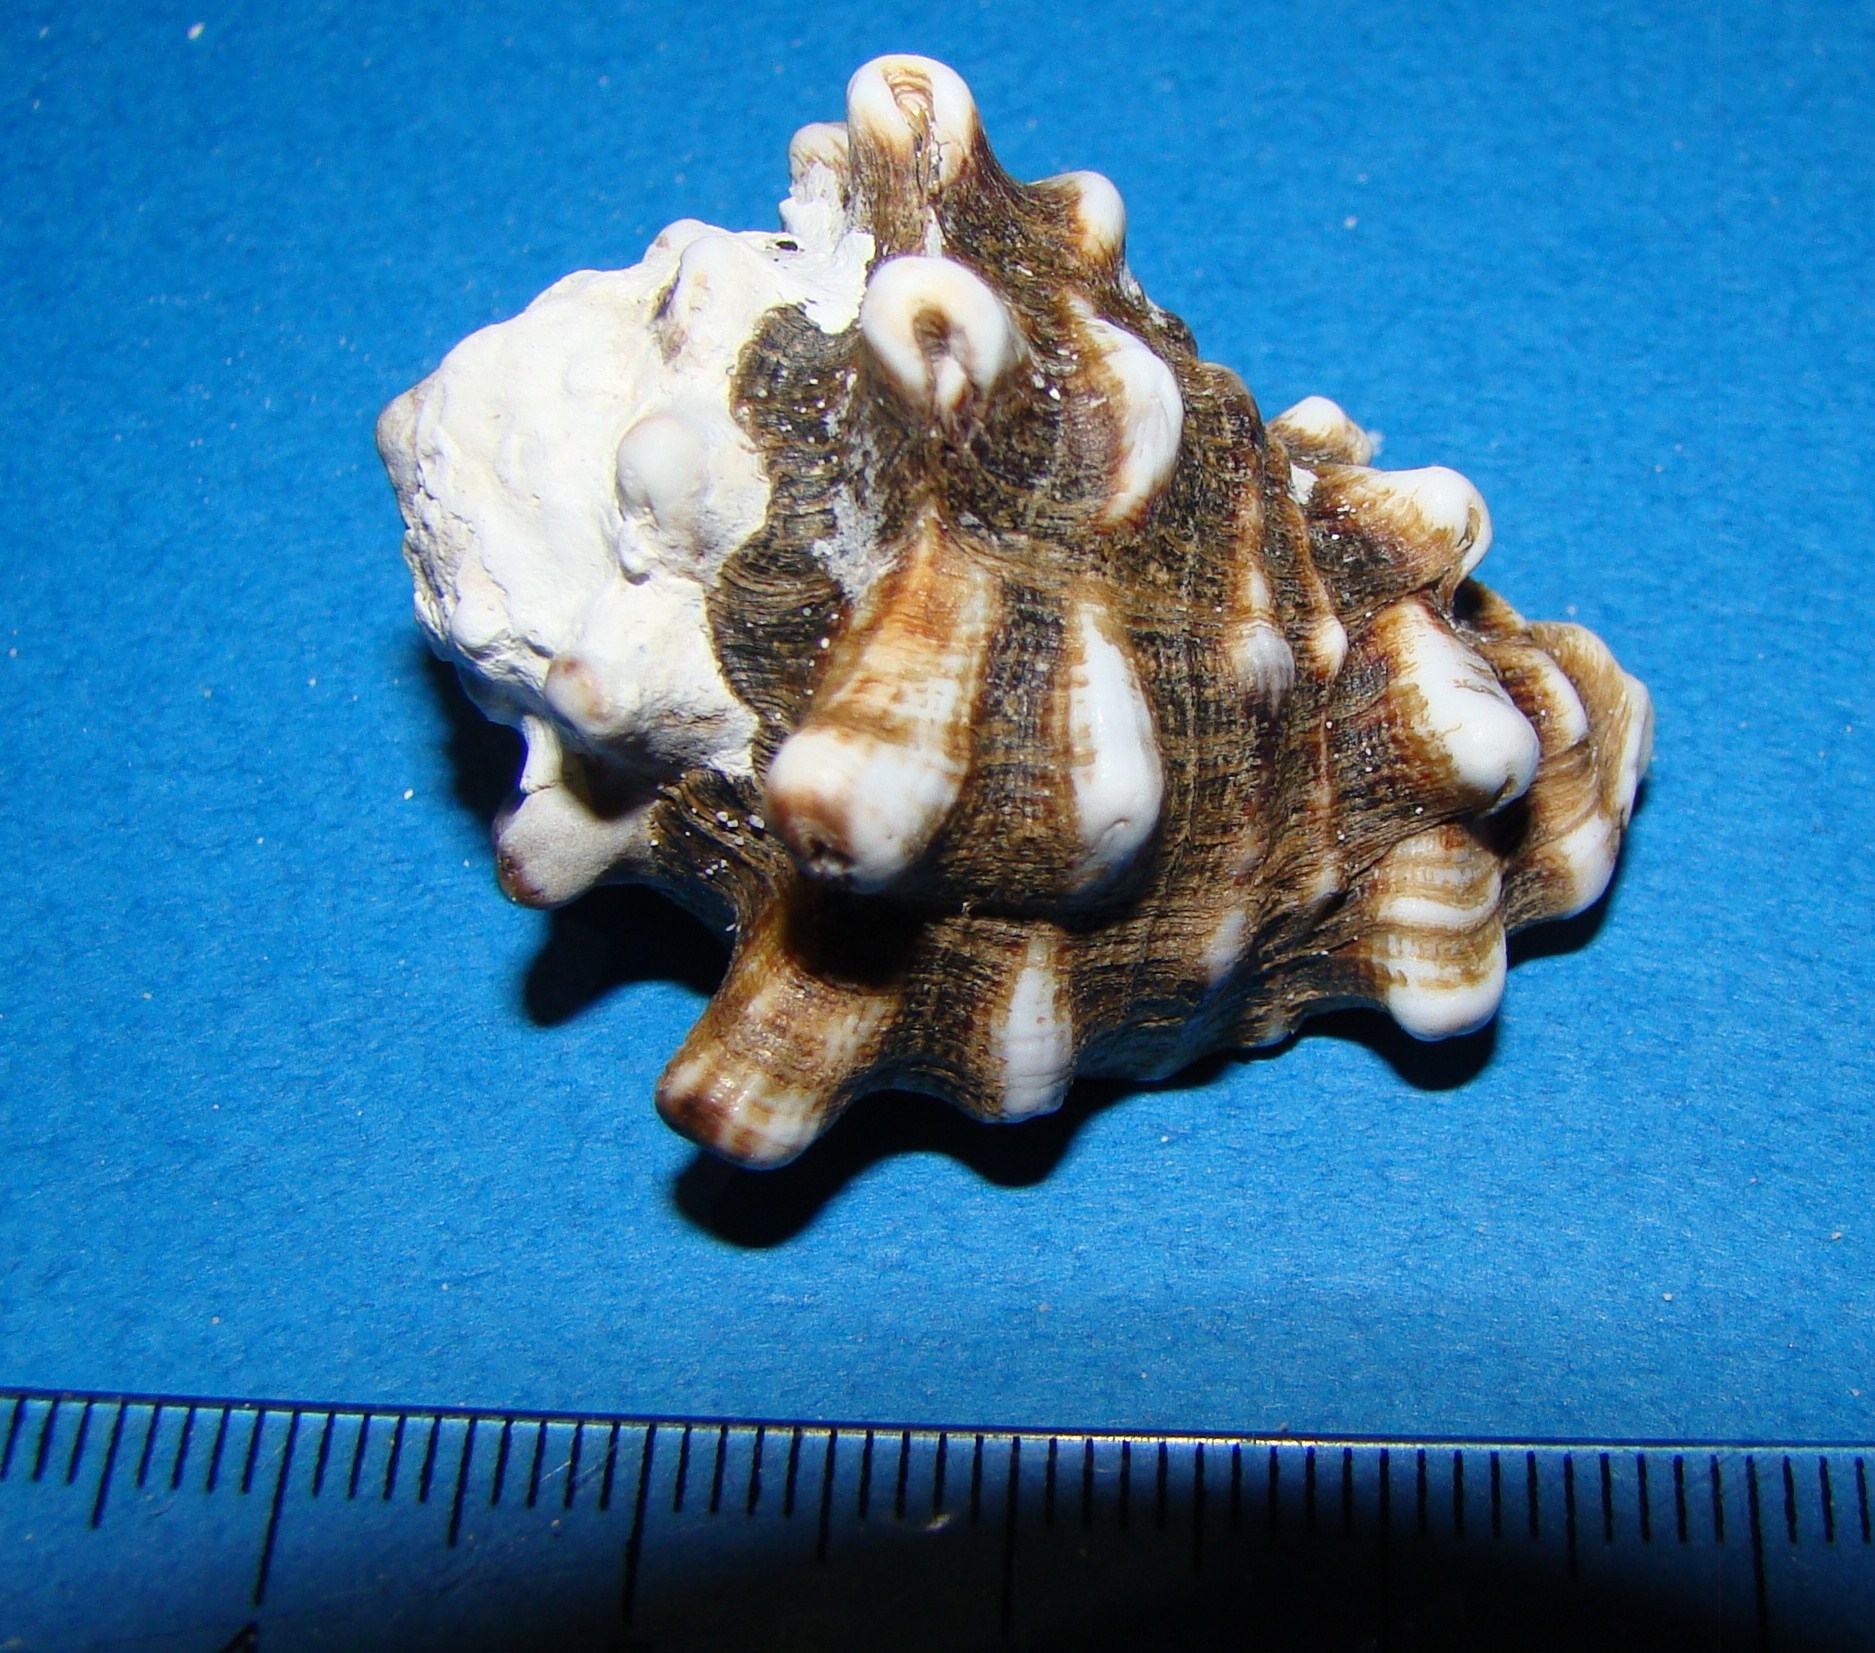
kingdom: Animalia
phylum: Mollusca
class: Gastropoda
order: Neogastropoda
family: Turbinellidae
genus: Vasum
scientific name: Vasum turbinellus
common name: Pacific top vase
